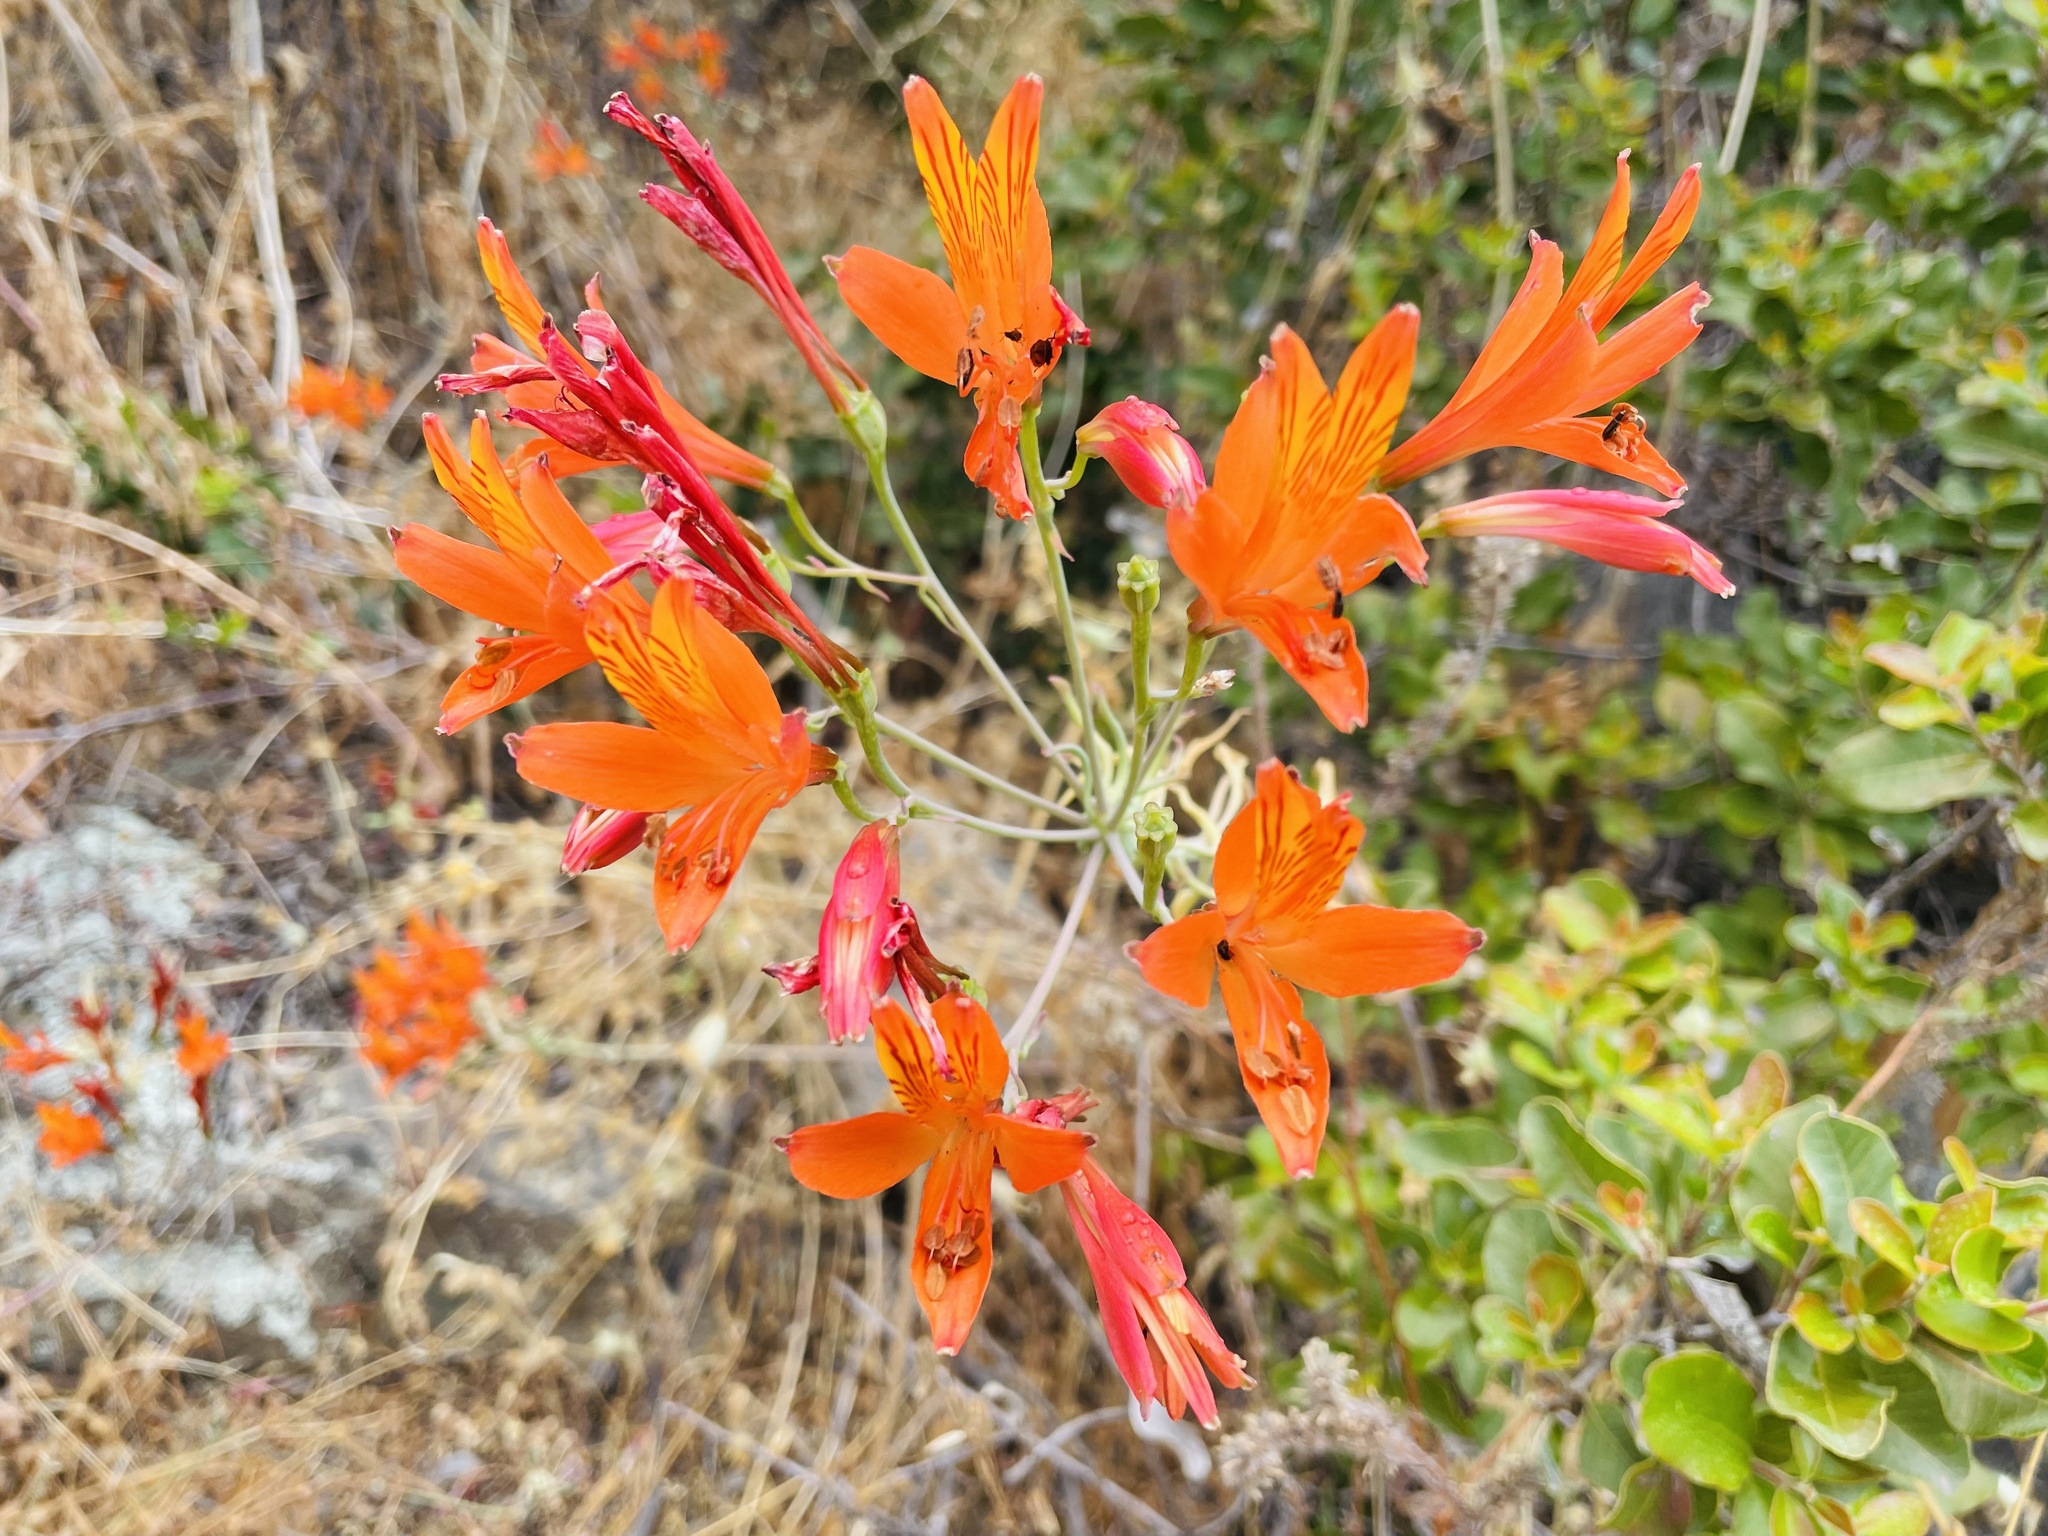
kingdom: Plantae
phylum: Tracheophyta
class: Liliopsida
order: Liliales
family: Alstroemeriaceae
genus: Alstroemeria
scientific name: Alstroemeria ligtu
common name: St. martin's-flower
